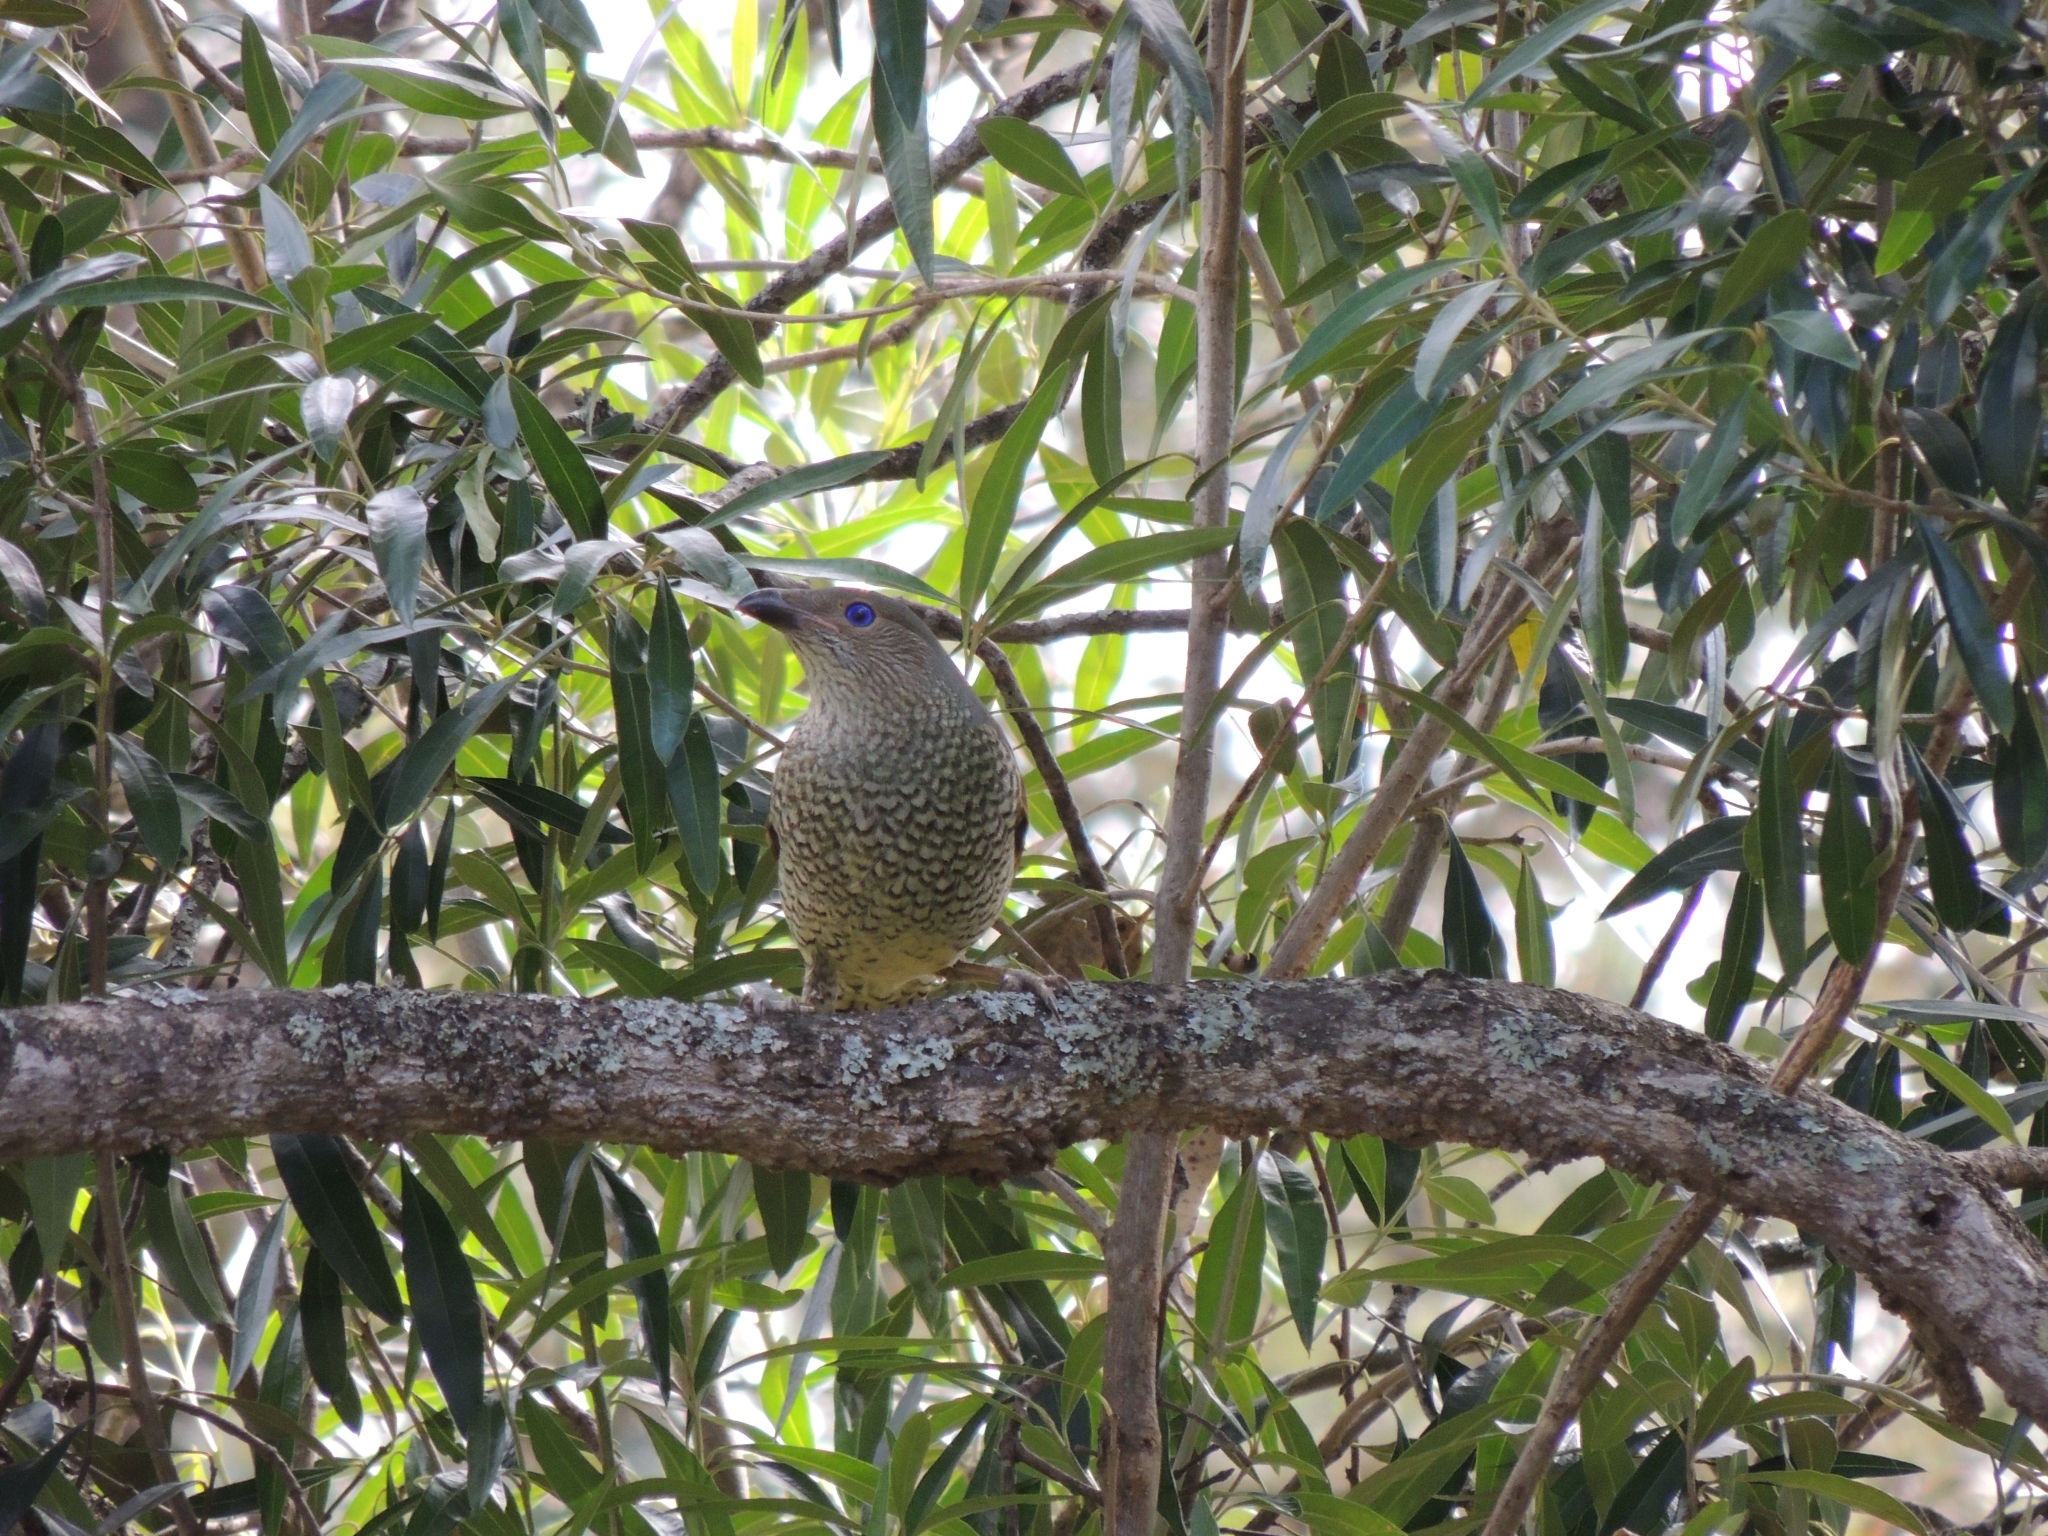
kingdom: Animalia
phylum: Chordata
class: Aves
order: Passeriformes
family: Ptilonorhynchidae
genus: Ptilonorhynchus
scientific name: Ptilonorhynchus violaceus
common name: Satin bowerbird
